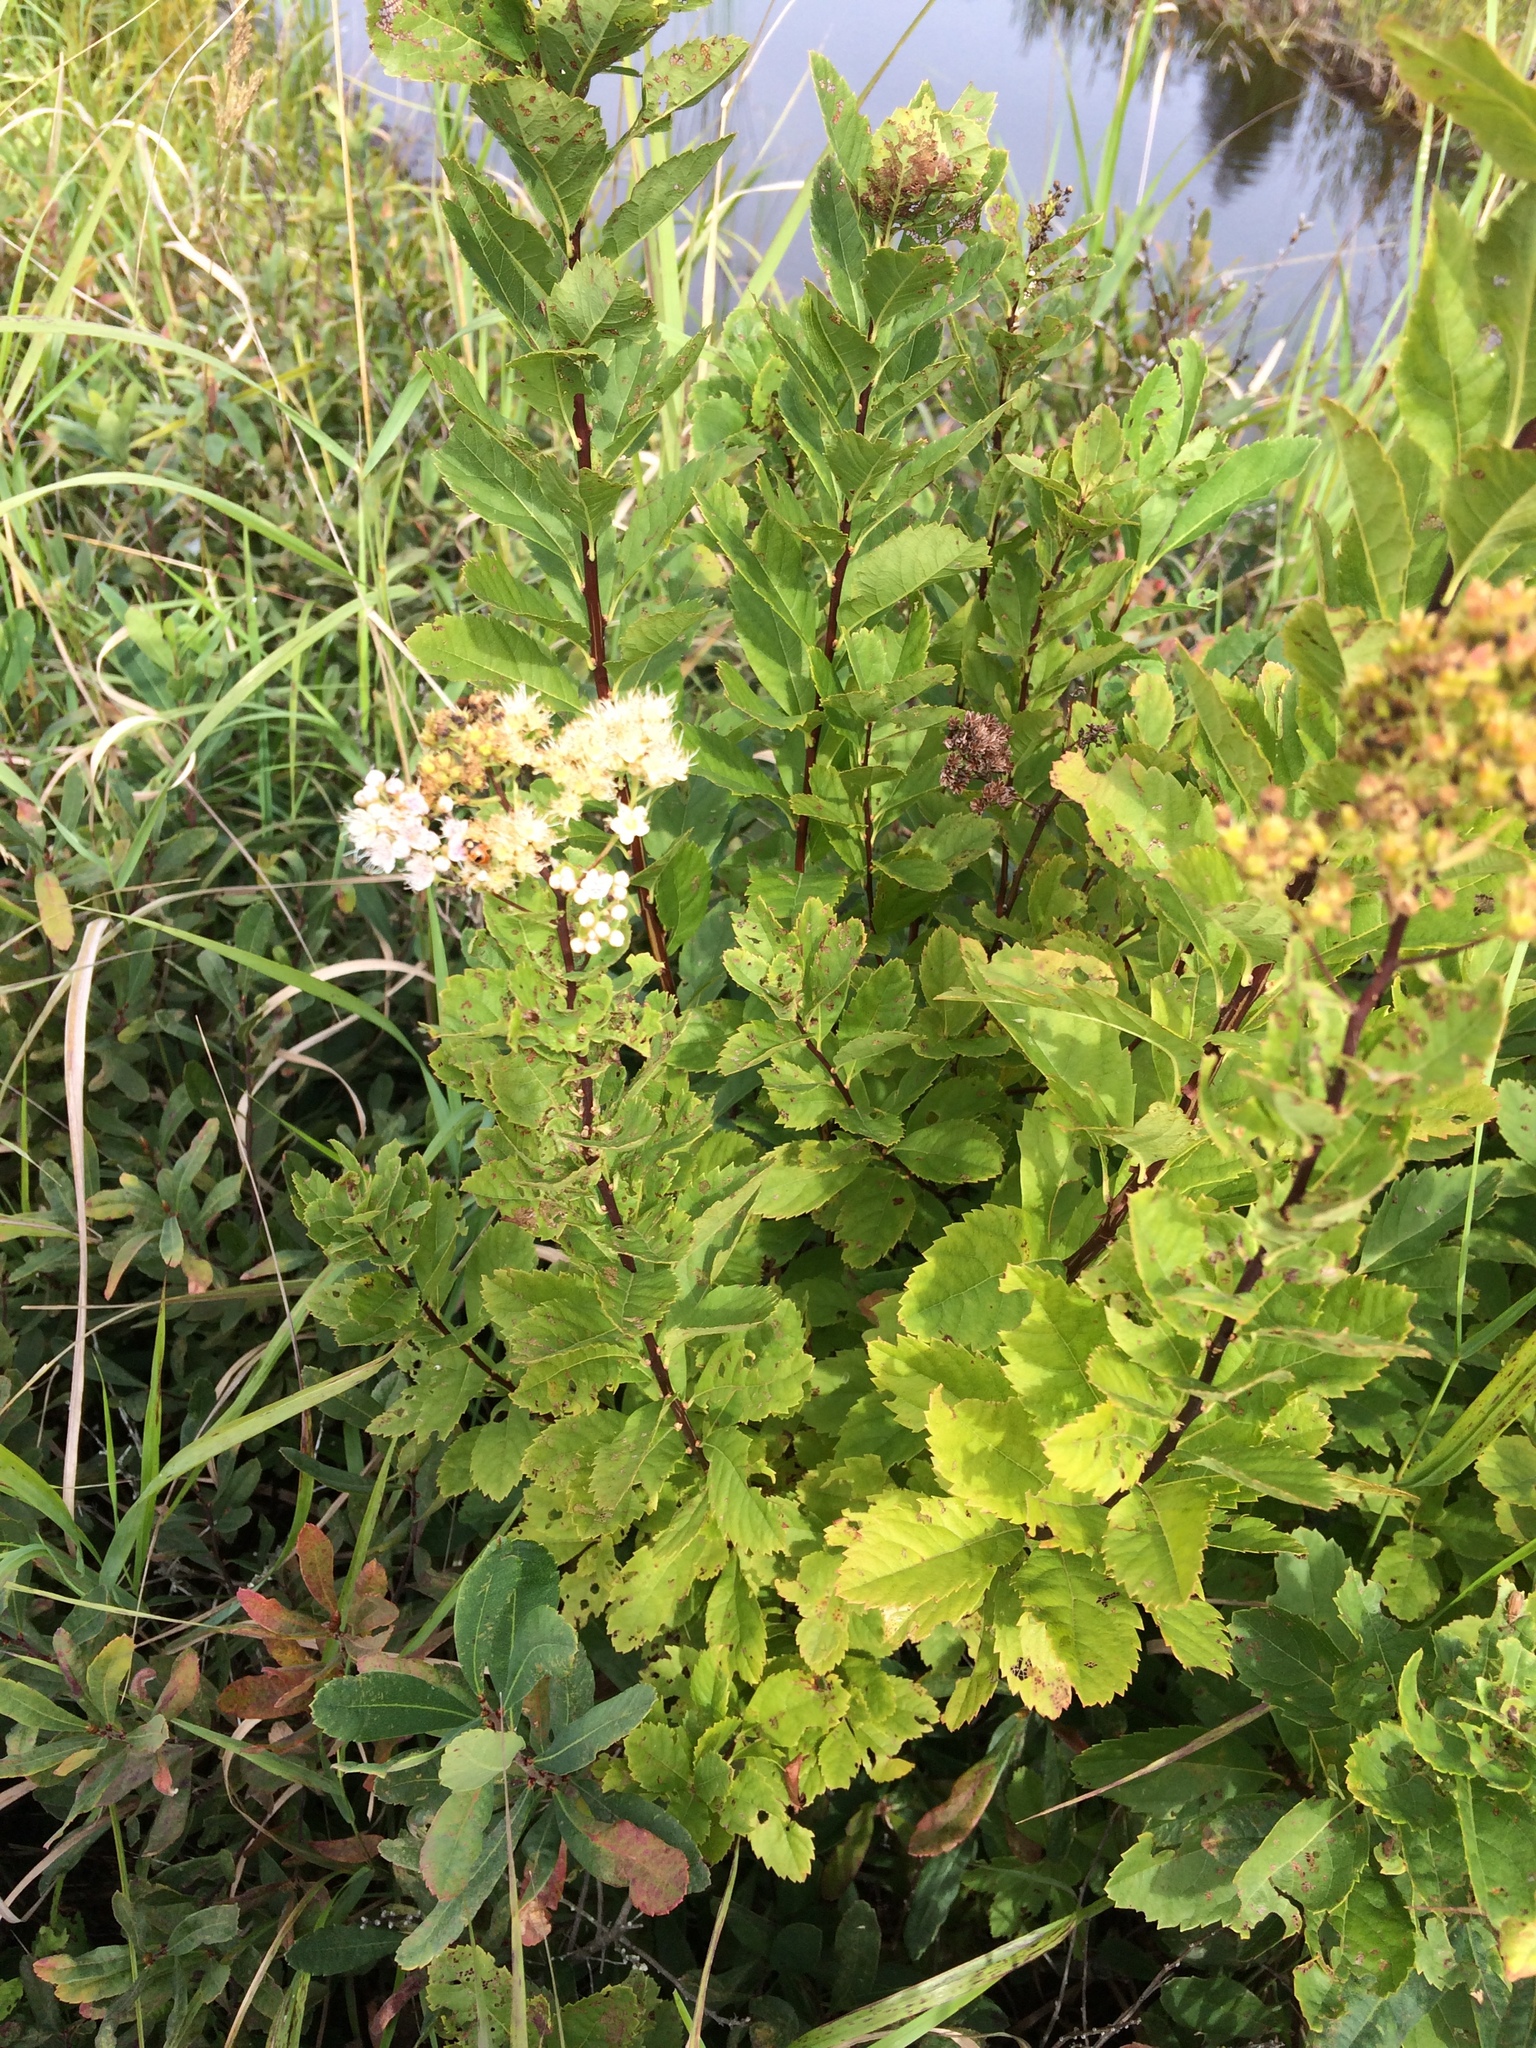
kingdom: Plantae
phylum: Tracheophyta
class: Magnoliopsida
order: Rosales
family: Rosaceae
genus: Spiraea
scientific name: Spiraea alba
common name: Pale bridewort
